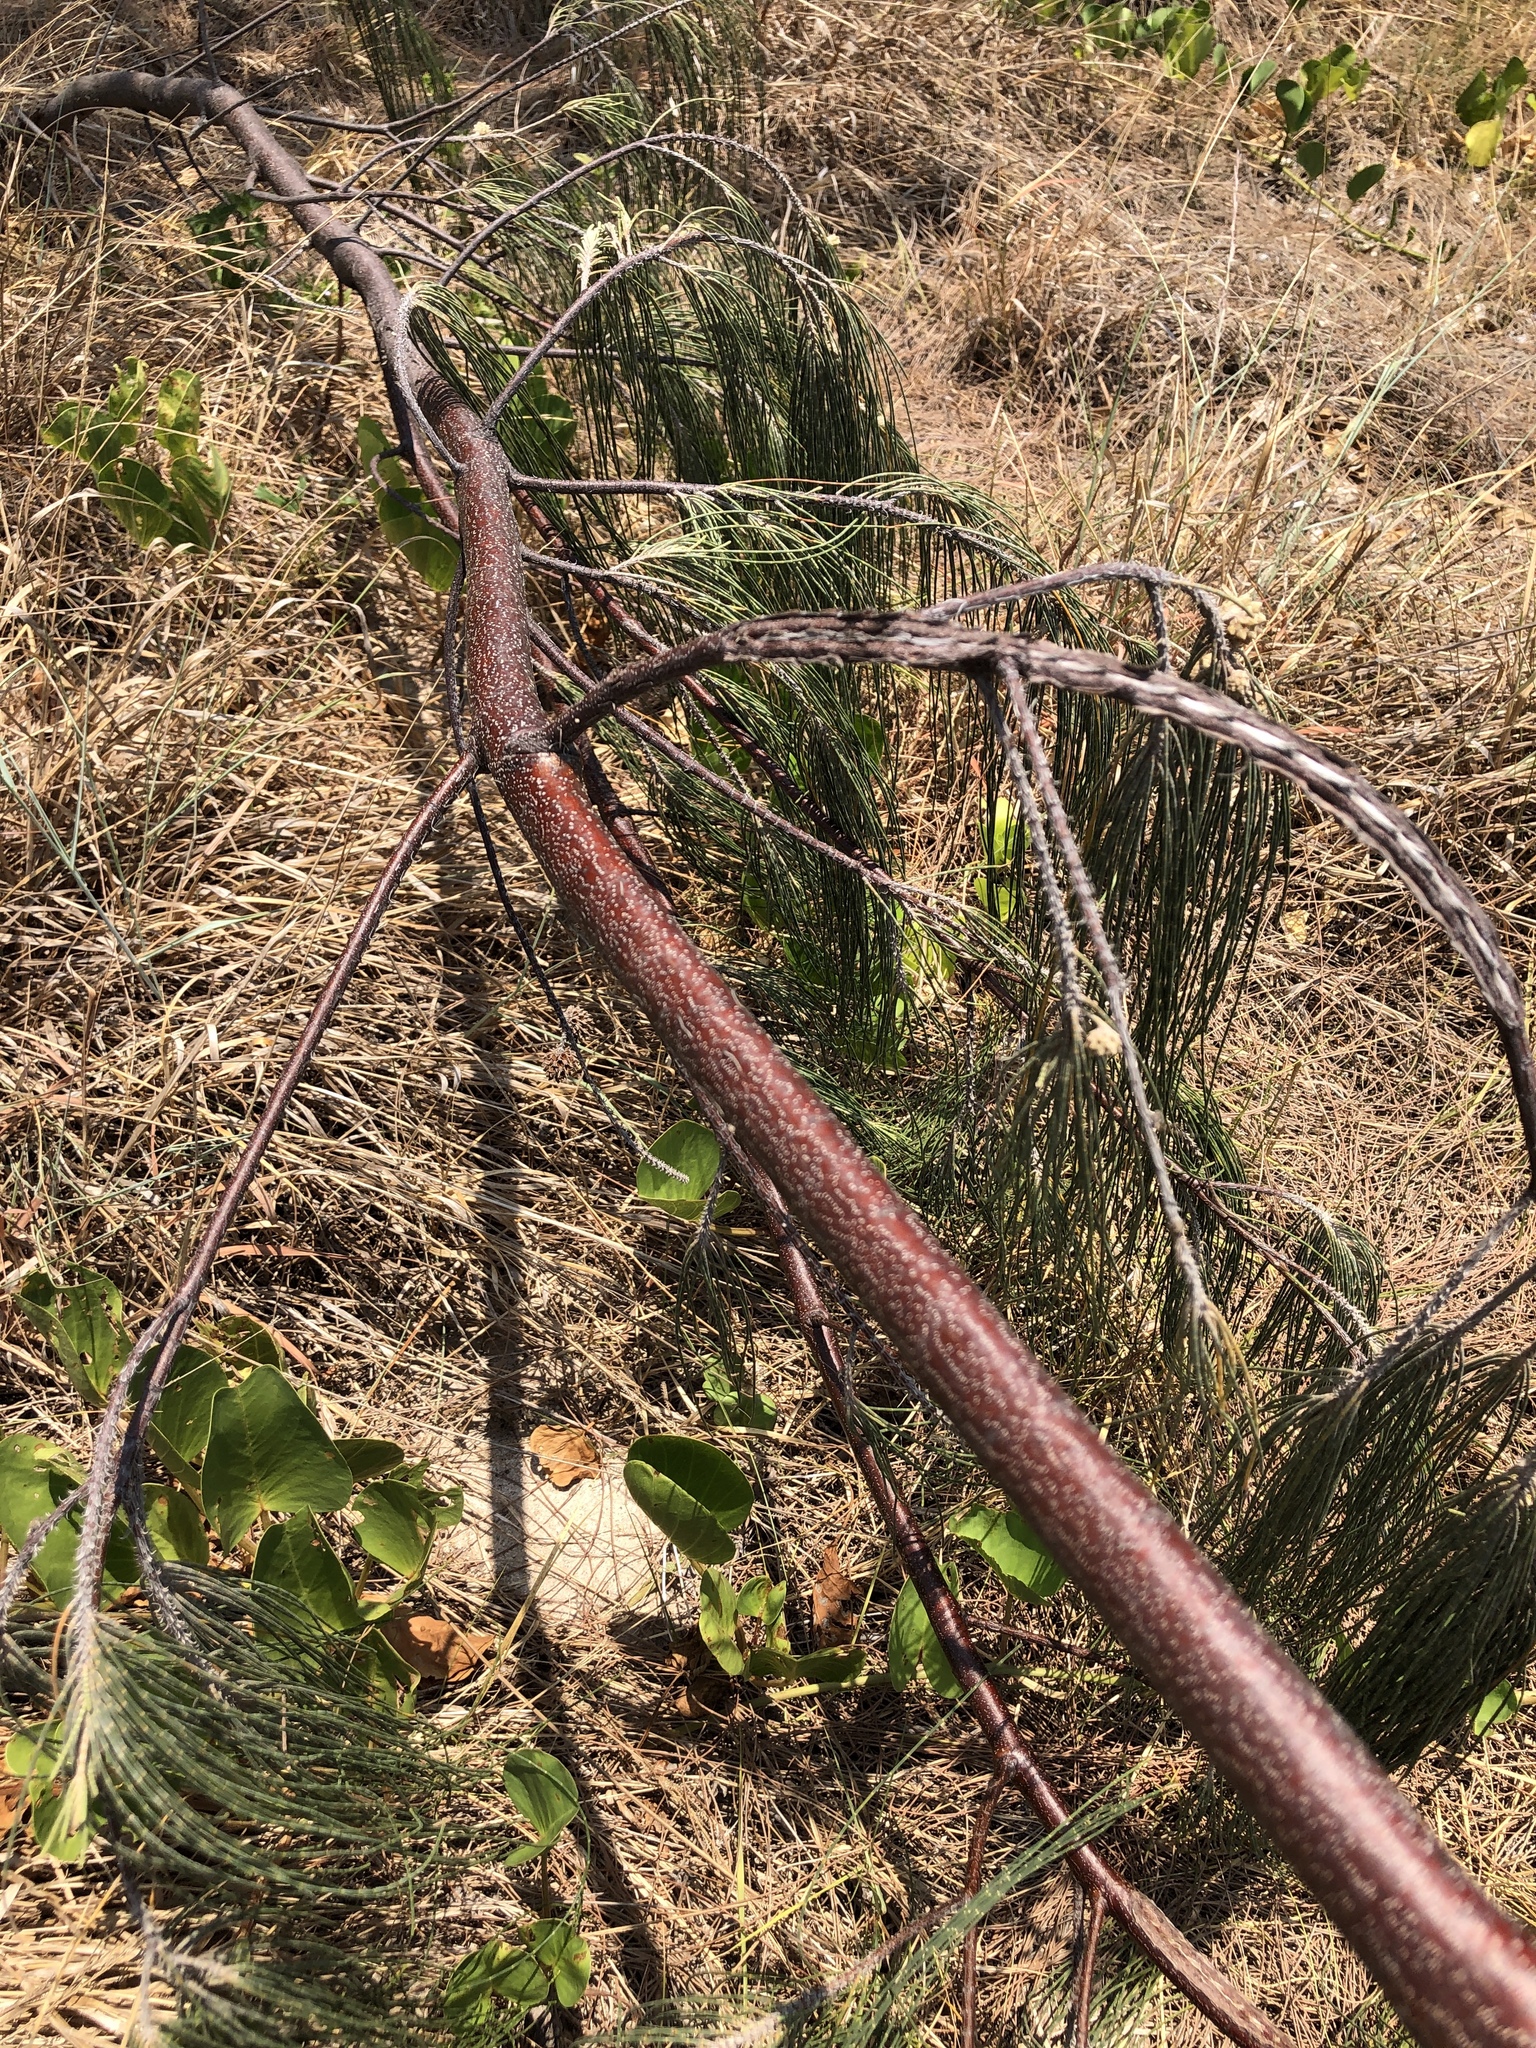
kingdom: Plantae
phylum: Tracheophyta
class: Magnoliopsida
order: Fagales
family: Casuarinaceae
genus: Casuarina
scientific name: Casuarina equisetifolia
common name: Beach sheoak
